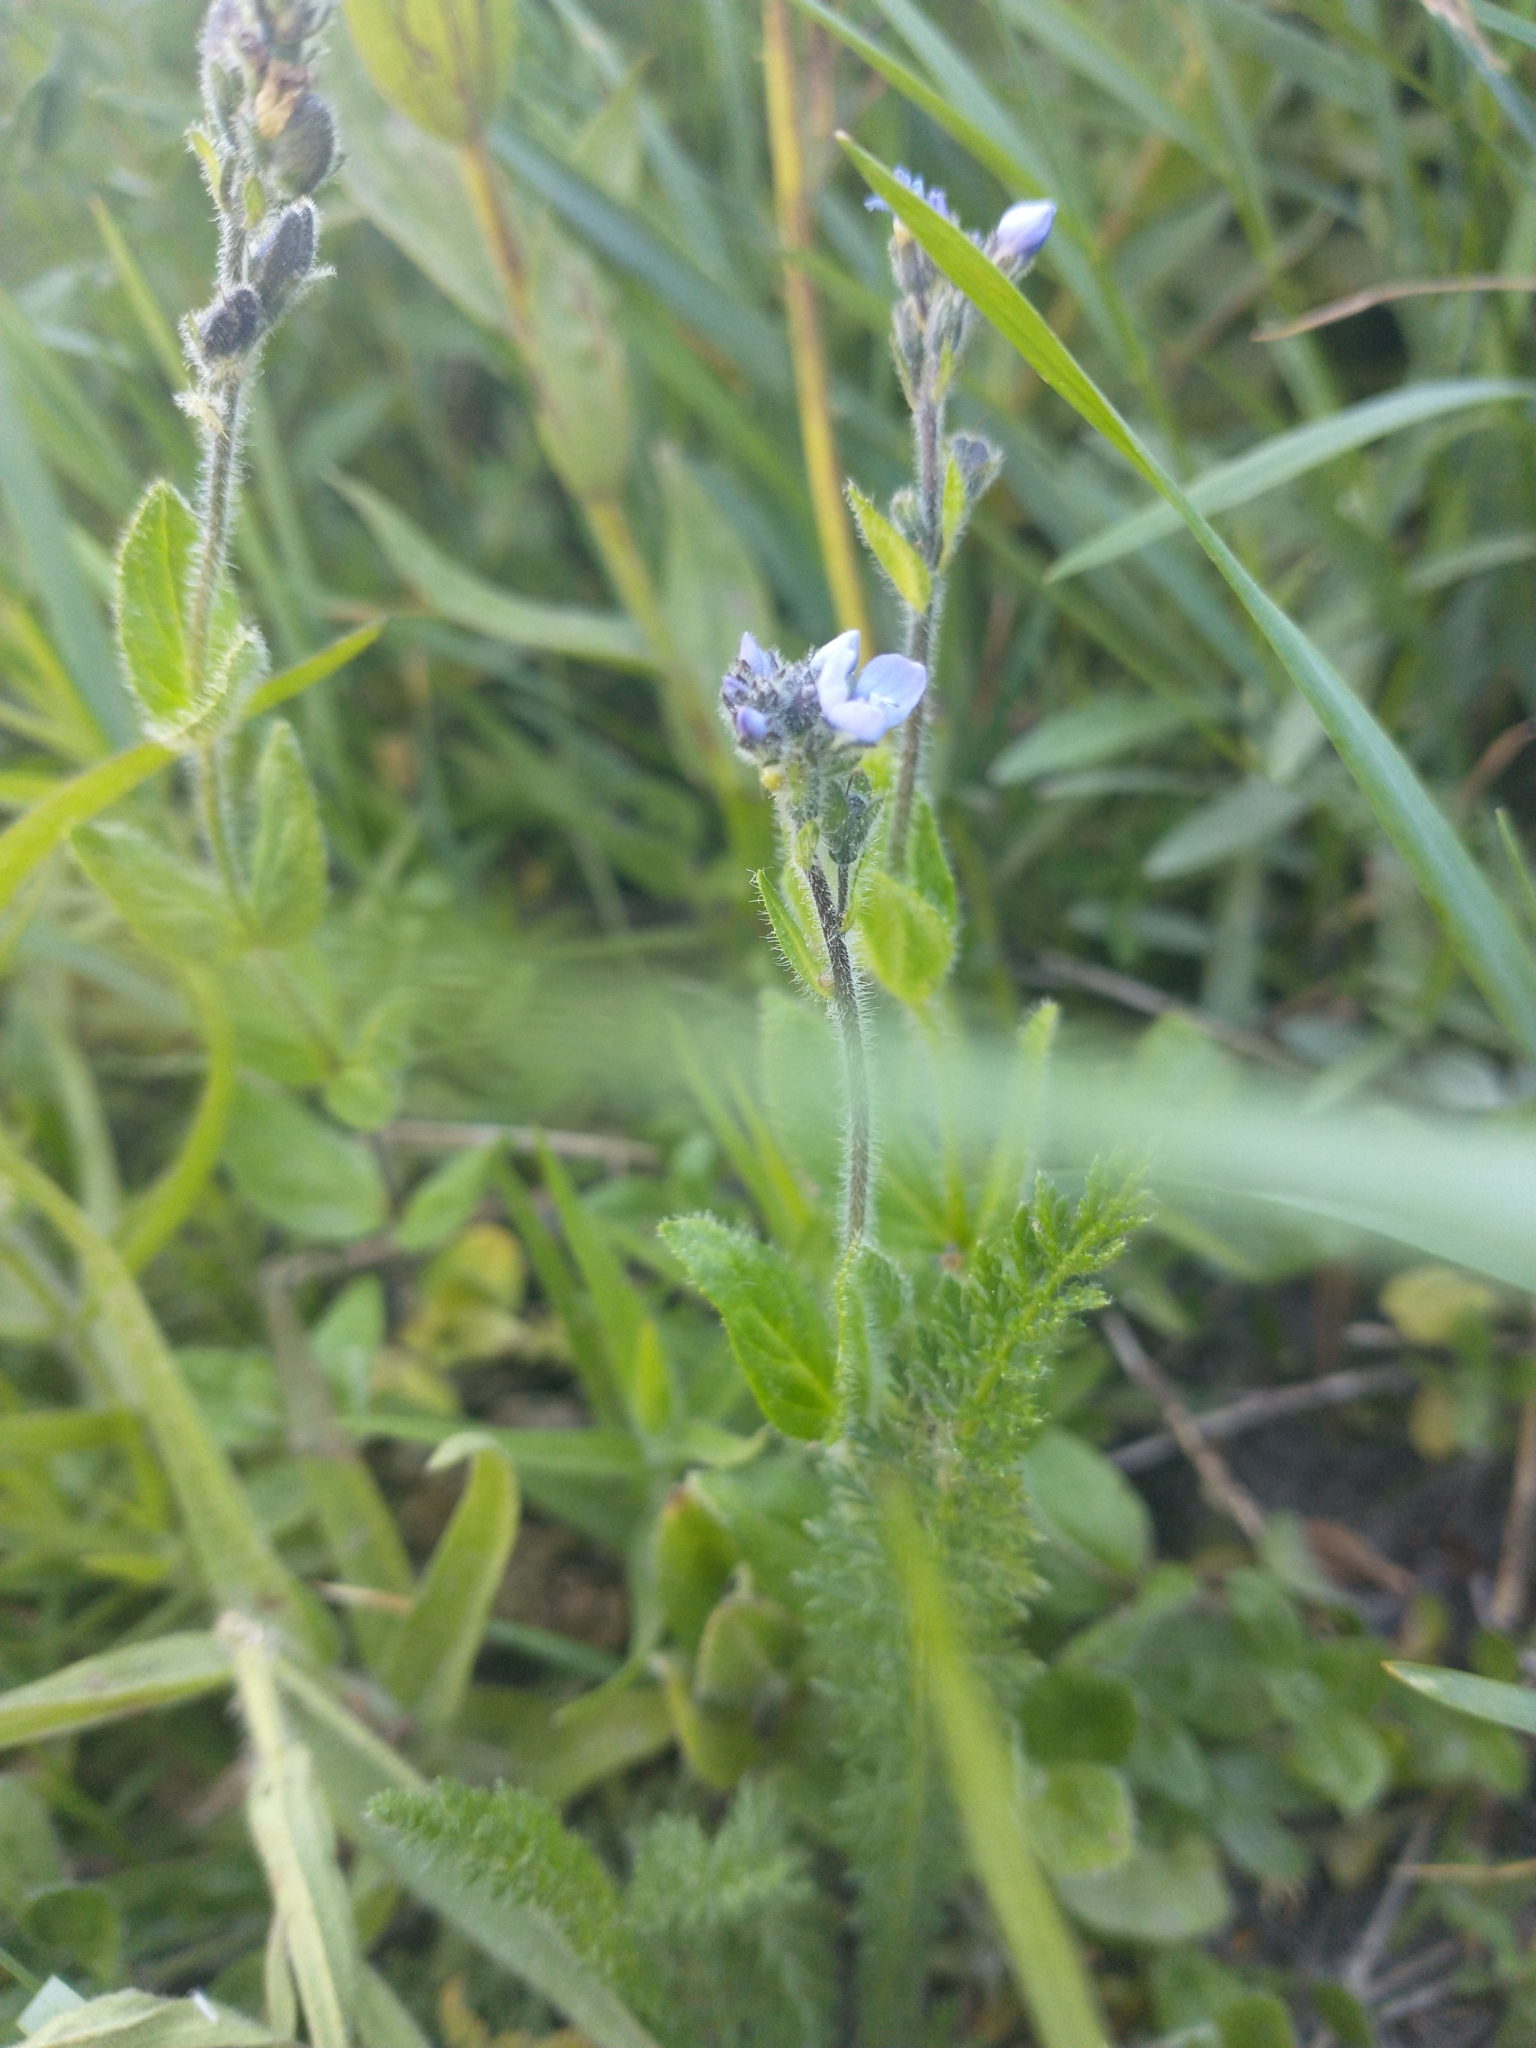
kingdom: Plantae
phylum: Tracheophyta
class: Magnoliopsida
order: Lamiales
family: Plantaginaceae
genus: Veronica
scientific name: Veronica wormskjoldii
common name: American alpine speedwell
